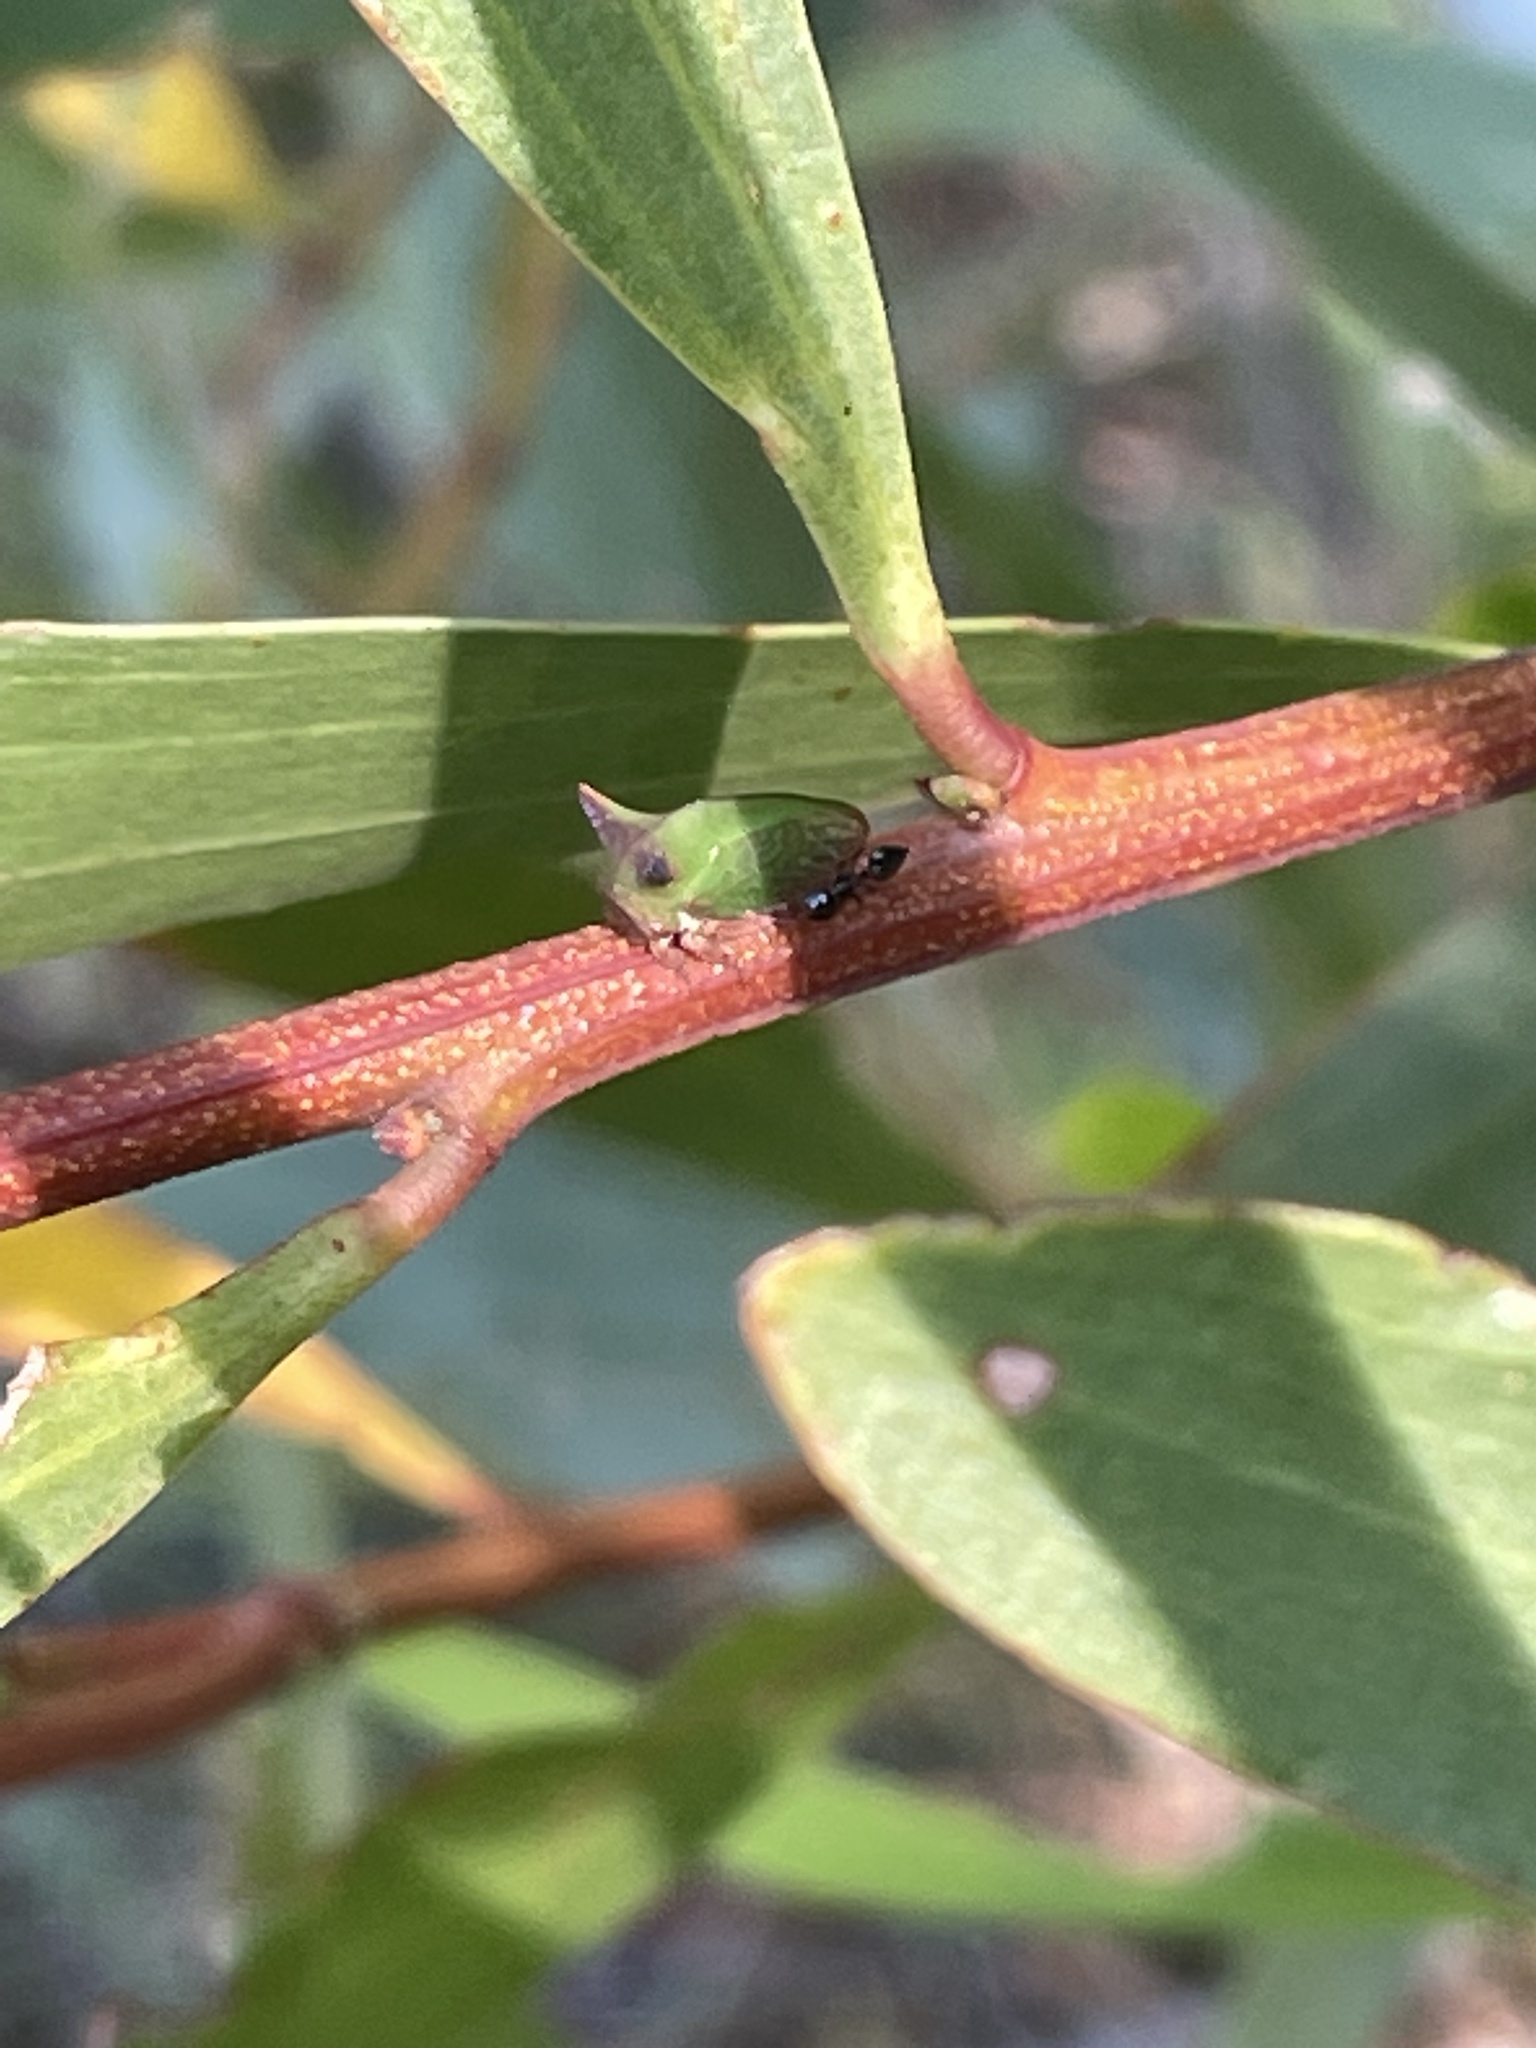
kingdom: Animalia
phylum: Arthropoda
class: Insecta
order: Hemiptera
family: Membracidae
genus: Sextius
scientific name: Sextius virescens
